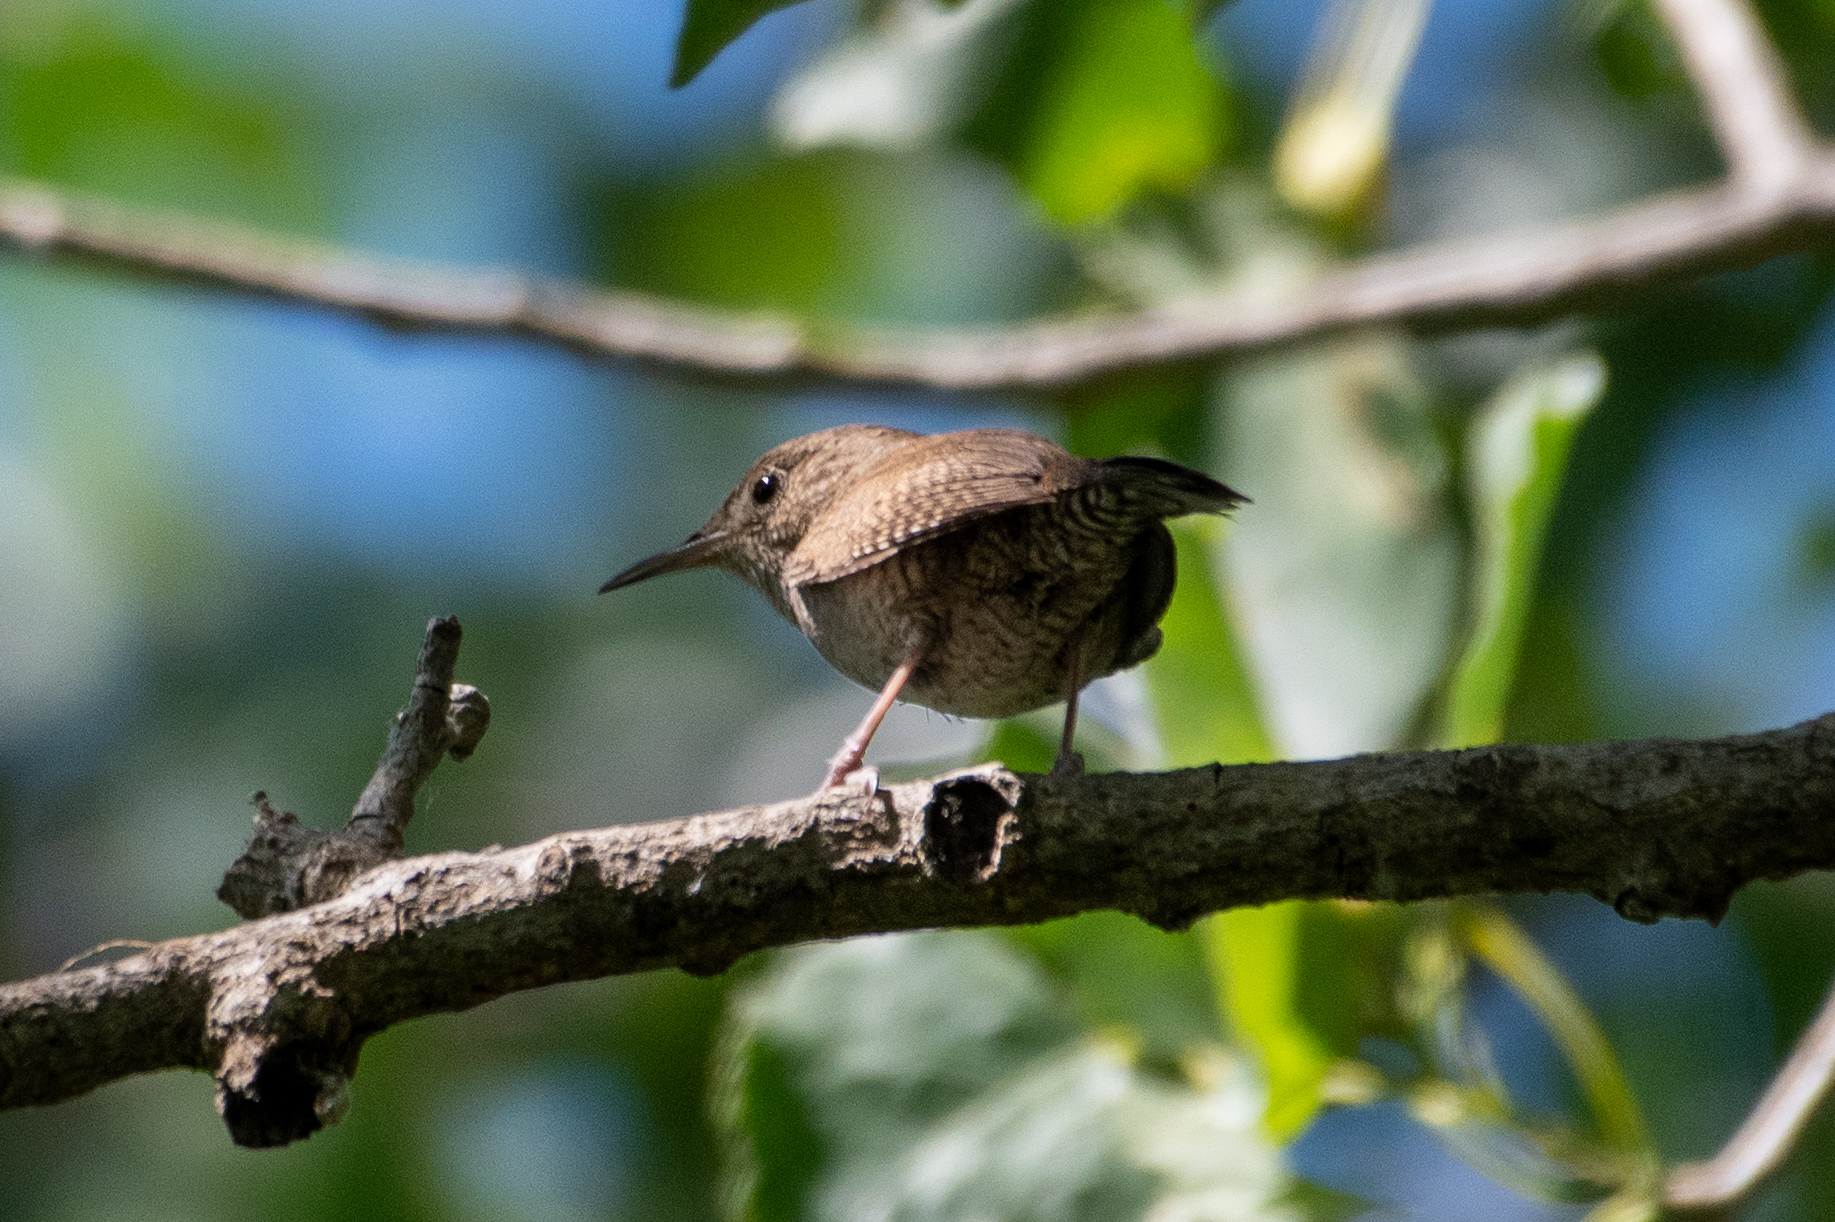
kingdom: Animalia
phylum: Chordata
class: Aves
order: Passeriformes
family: Troglodytidae
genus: Troglodytes
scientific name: Troglodytes aedon
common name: House wren
